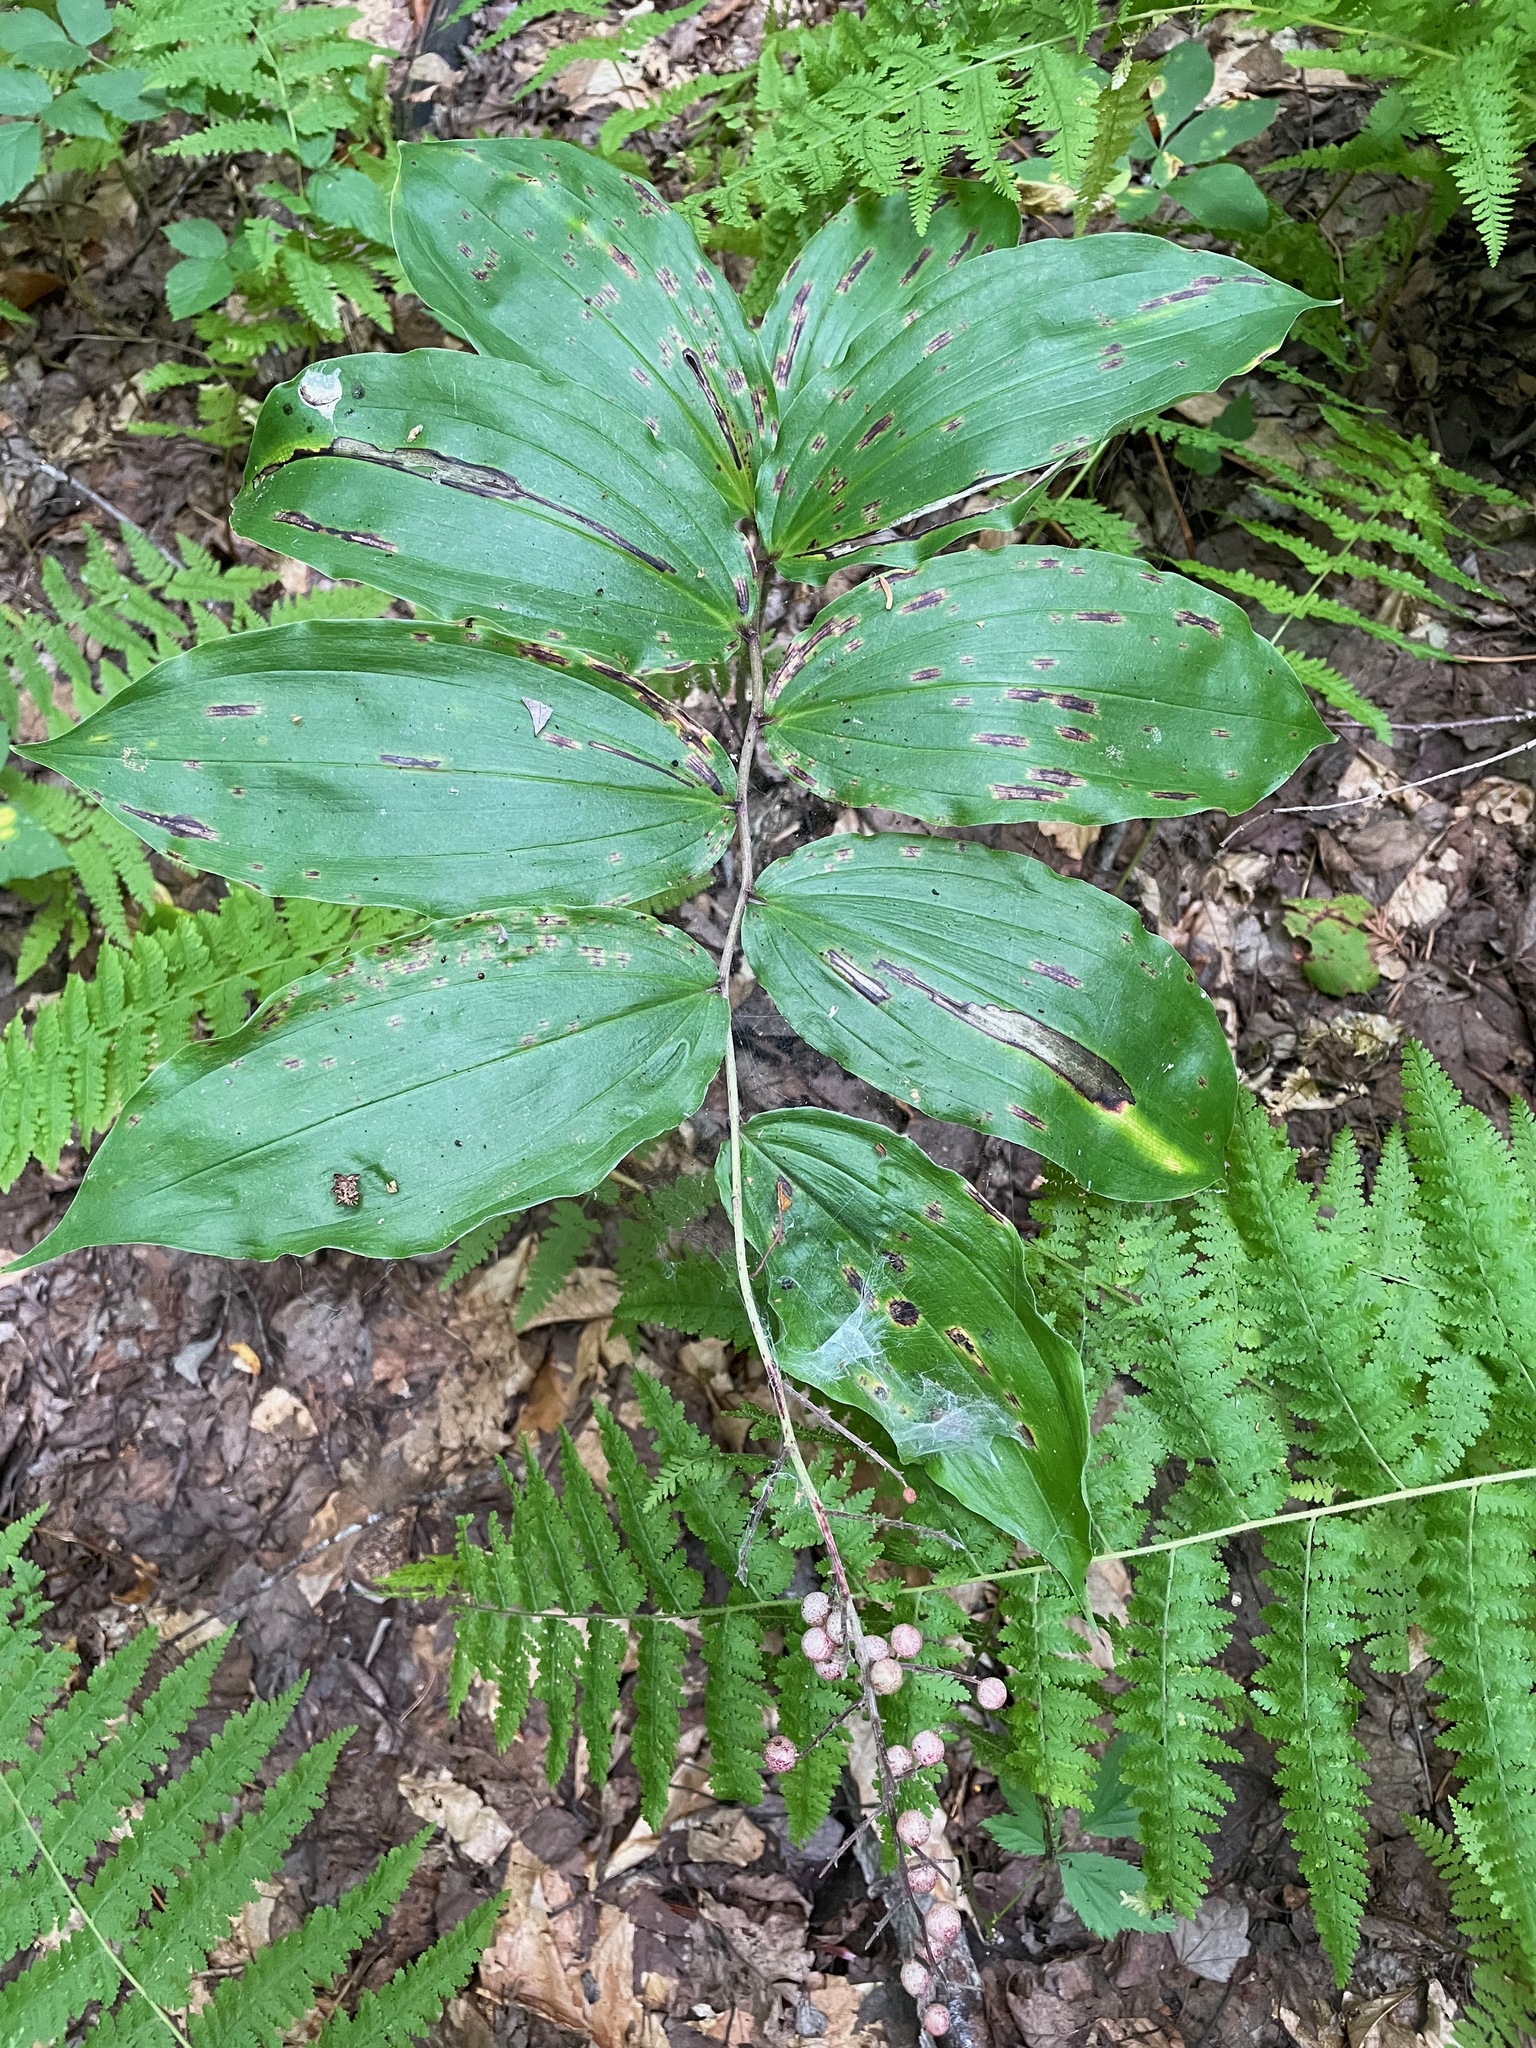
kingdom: Plantae
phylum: Tracheophyta
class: Liliopsida
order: Asparagales
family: Asparagaceae
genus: Maianthemum
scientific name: Maianthemum racemosum
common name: False spikenard
